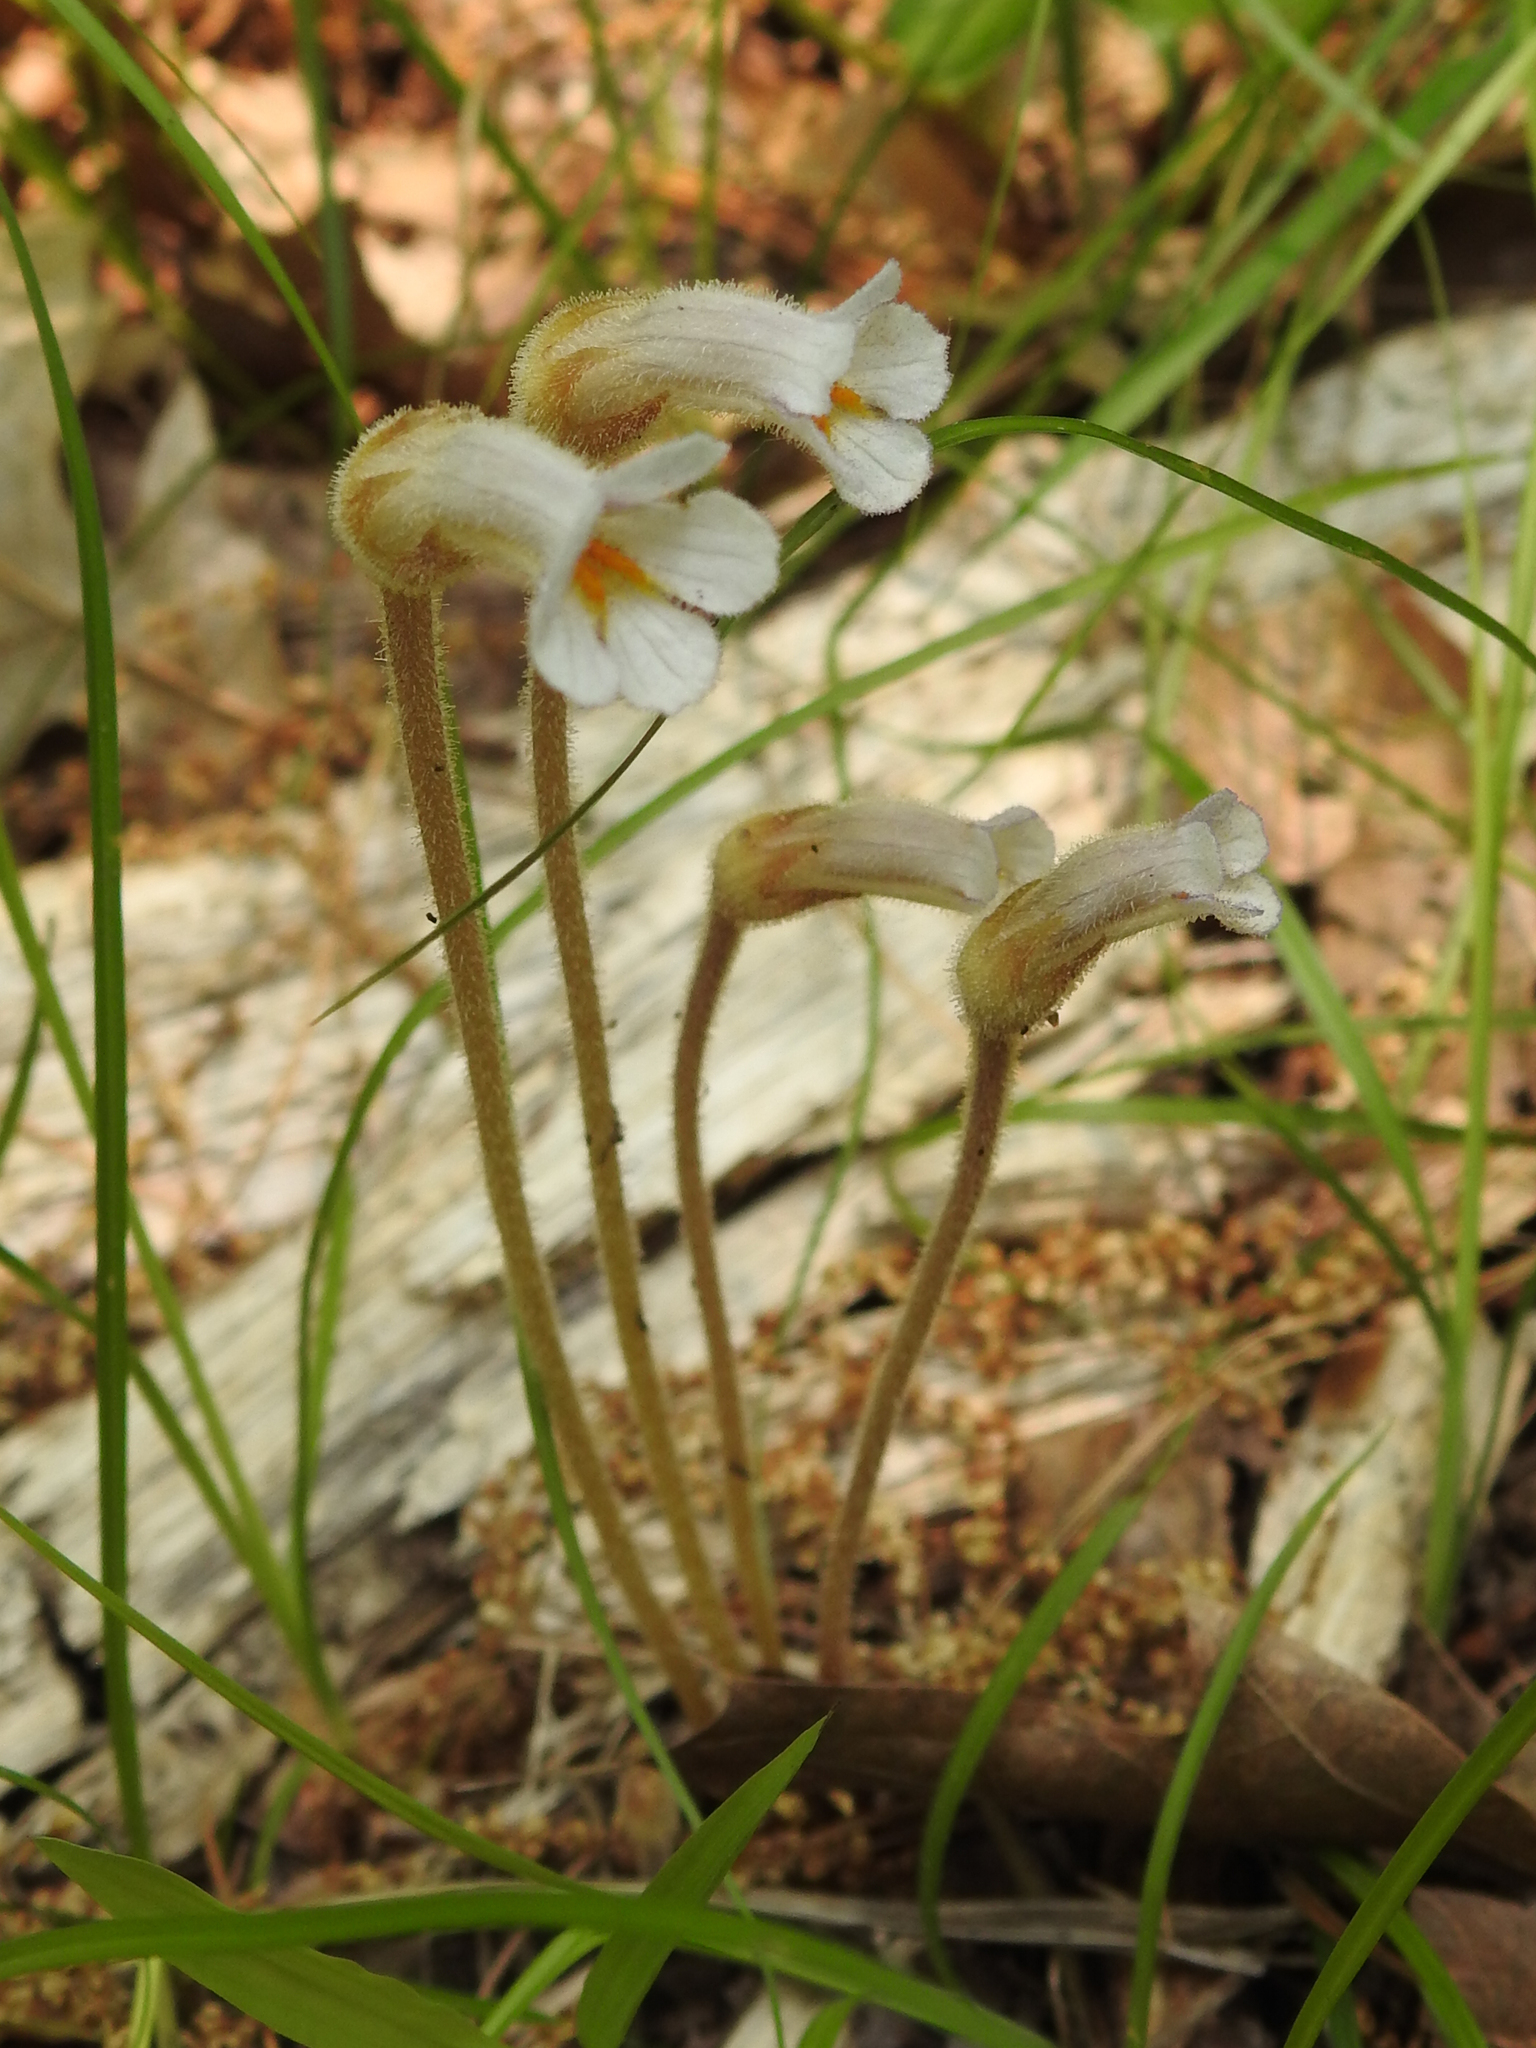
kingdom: Plantae
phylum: Tracheophyta
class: Magnoliopsida
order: Lamiales
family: Orobanchaceae
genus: Aphyllon
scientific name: Aphyllon uniflorum
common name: One-flowered broomrape
